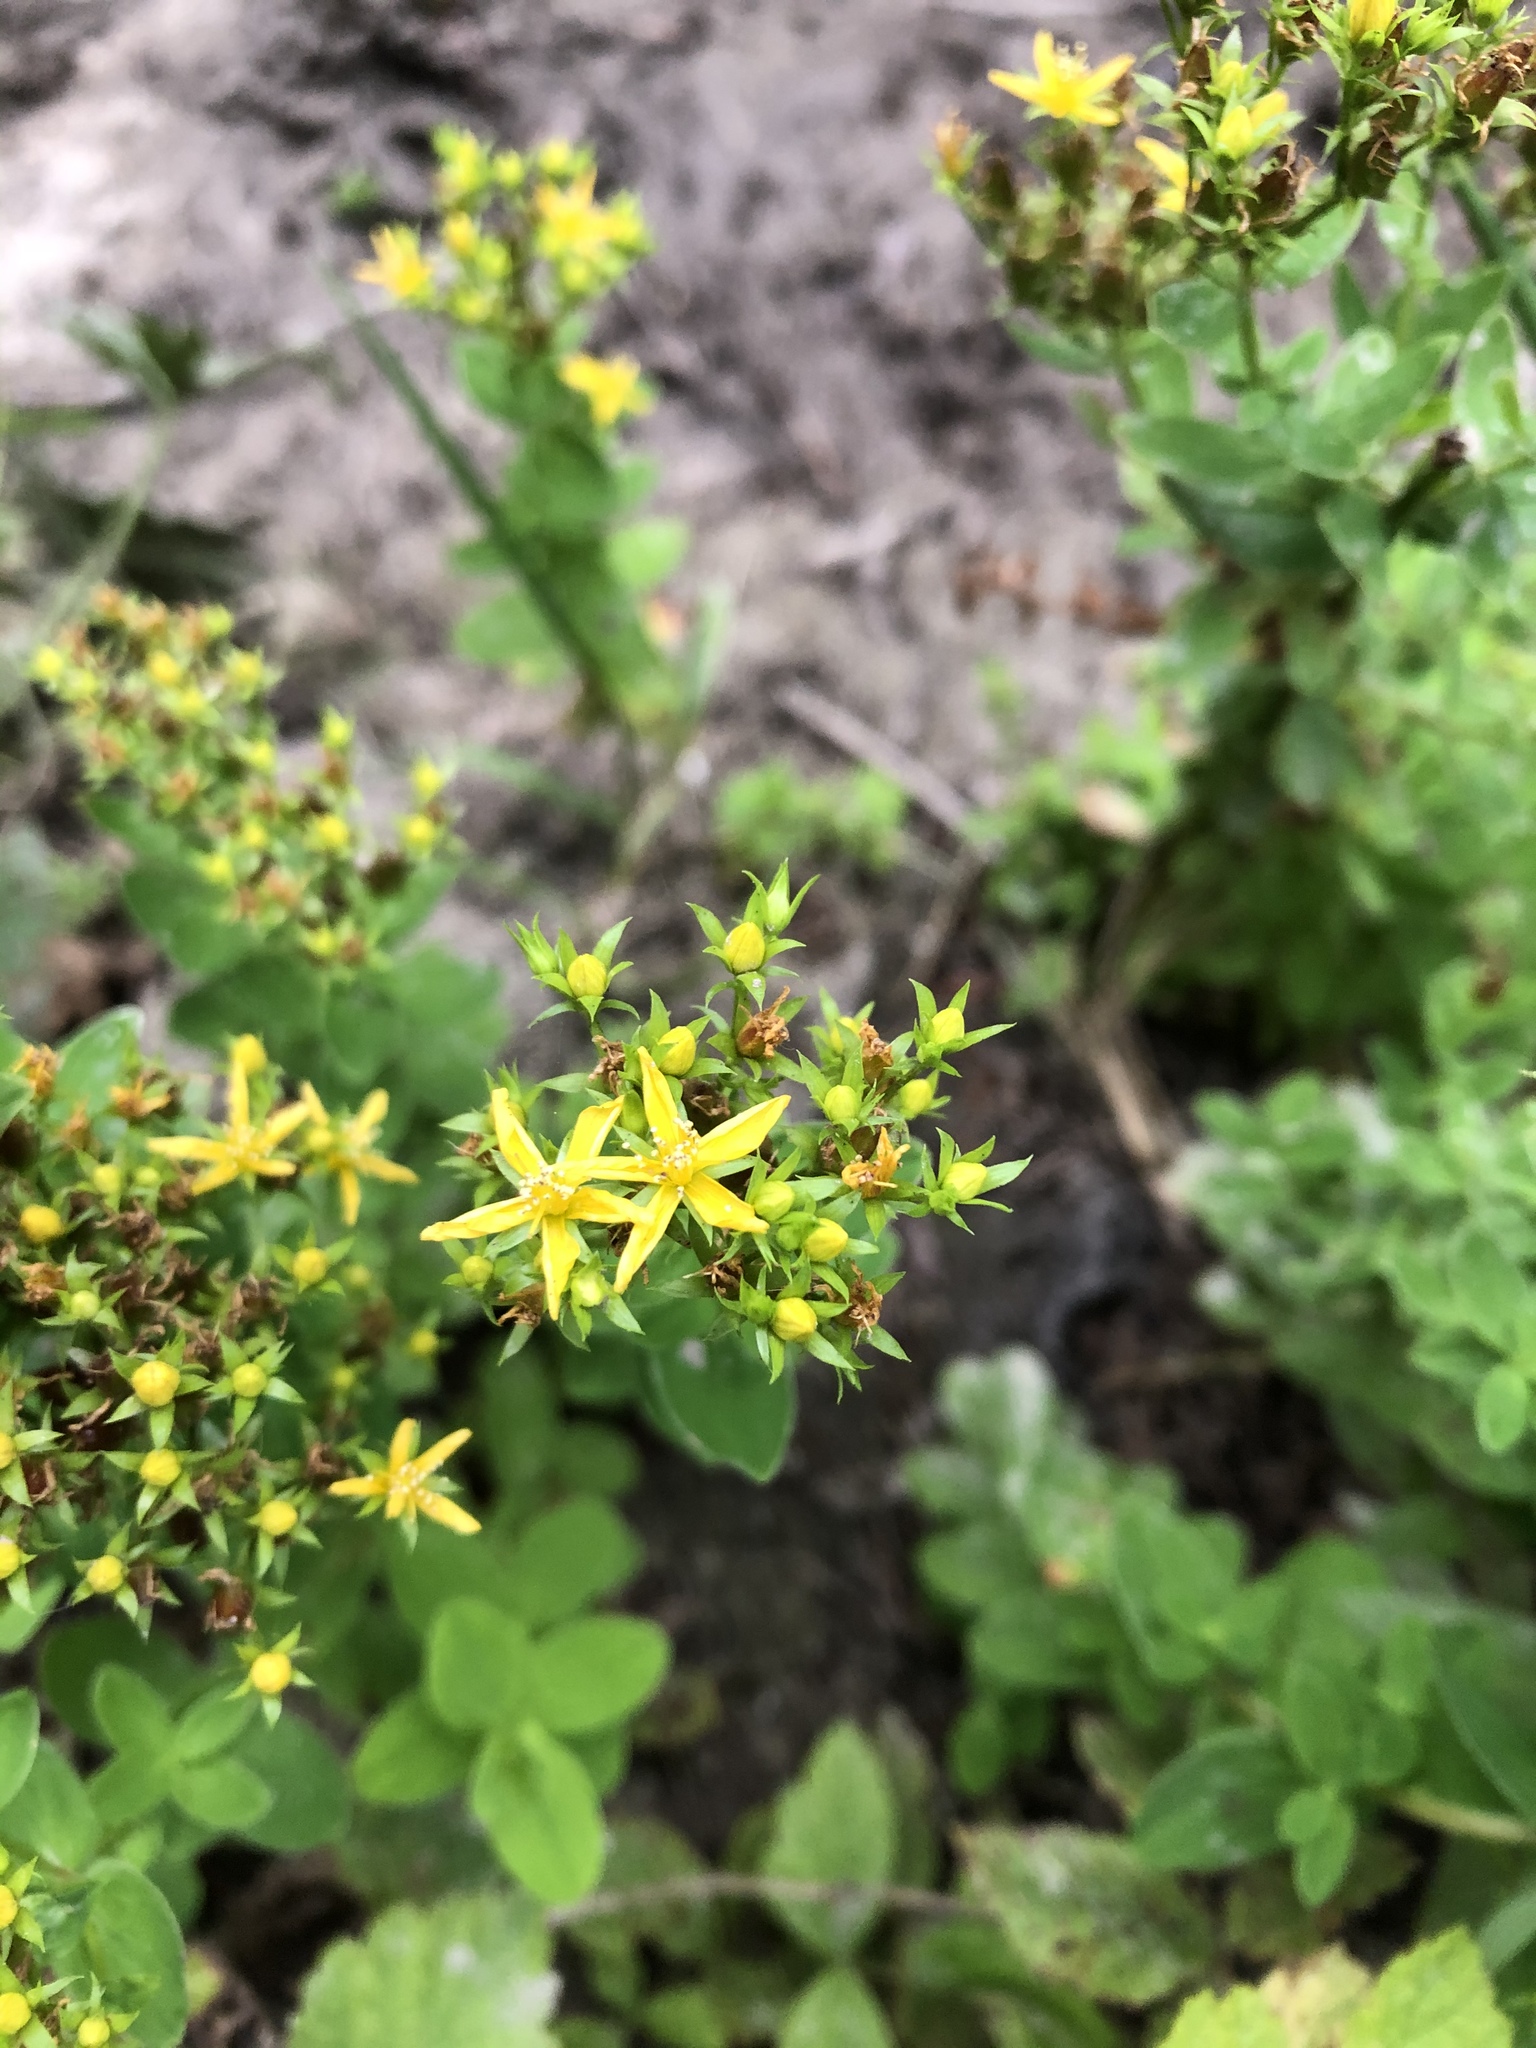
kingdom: Plantae
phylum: Tracheophyta
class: Magnoliopsida
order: Malpighiales
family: Hypericaceae
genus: Hypericum
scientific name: Hypericum tetrapterum
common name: Square-stalked st. john's-wort
